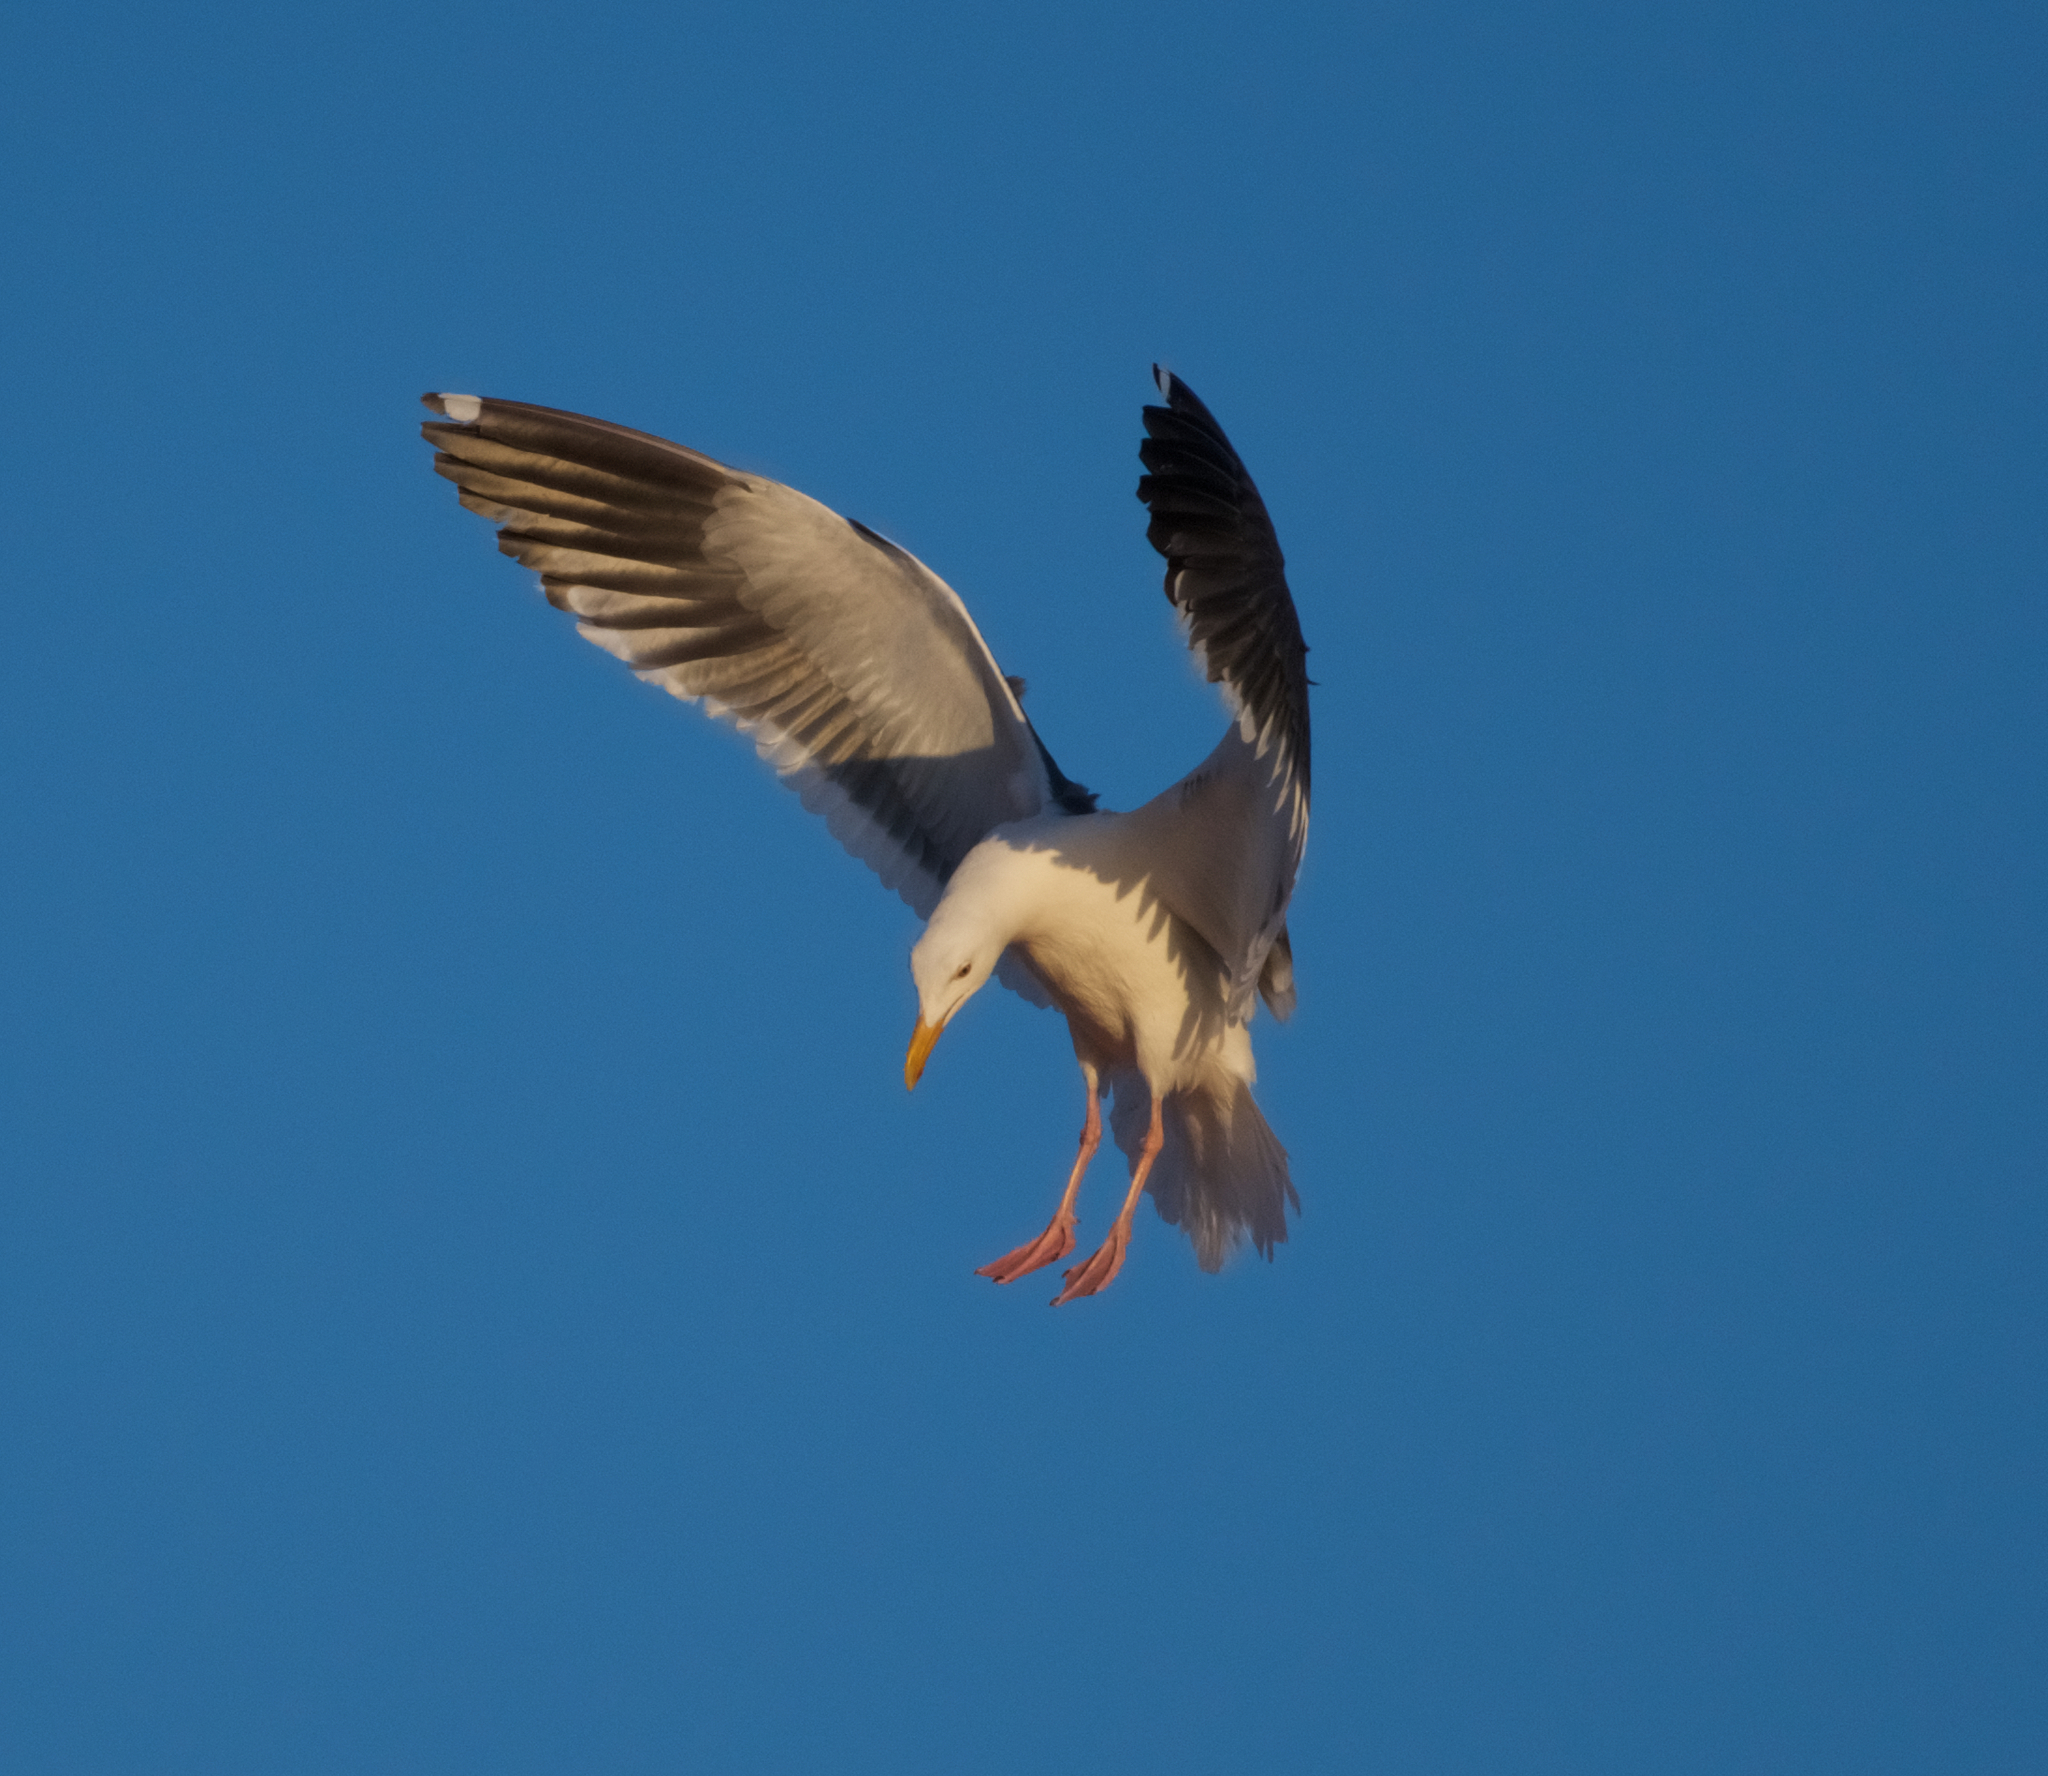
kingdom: Animalia
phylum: Chordata
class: Aves
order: Charadriiformes
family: Laridae
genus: Larus
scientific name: Larus occidentalis
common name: Western gull
